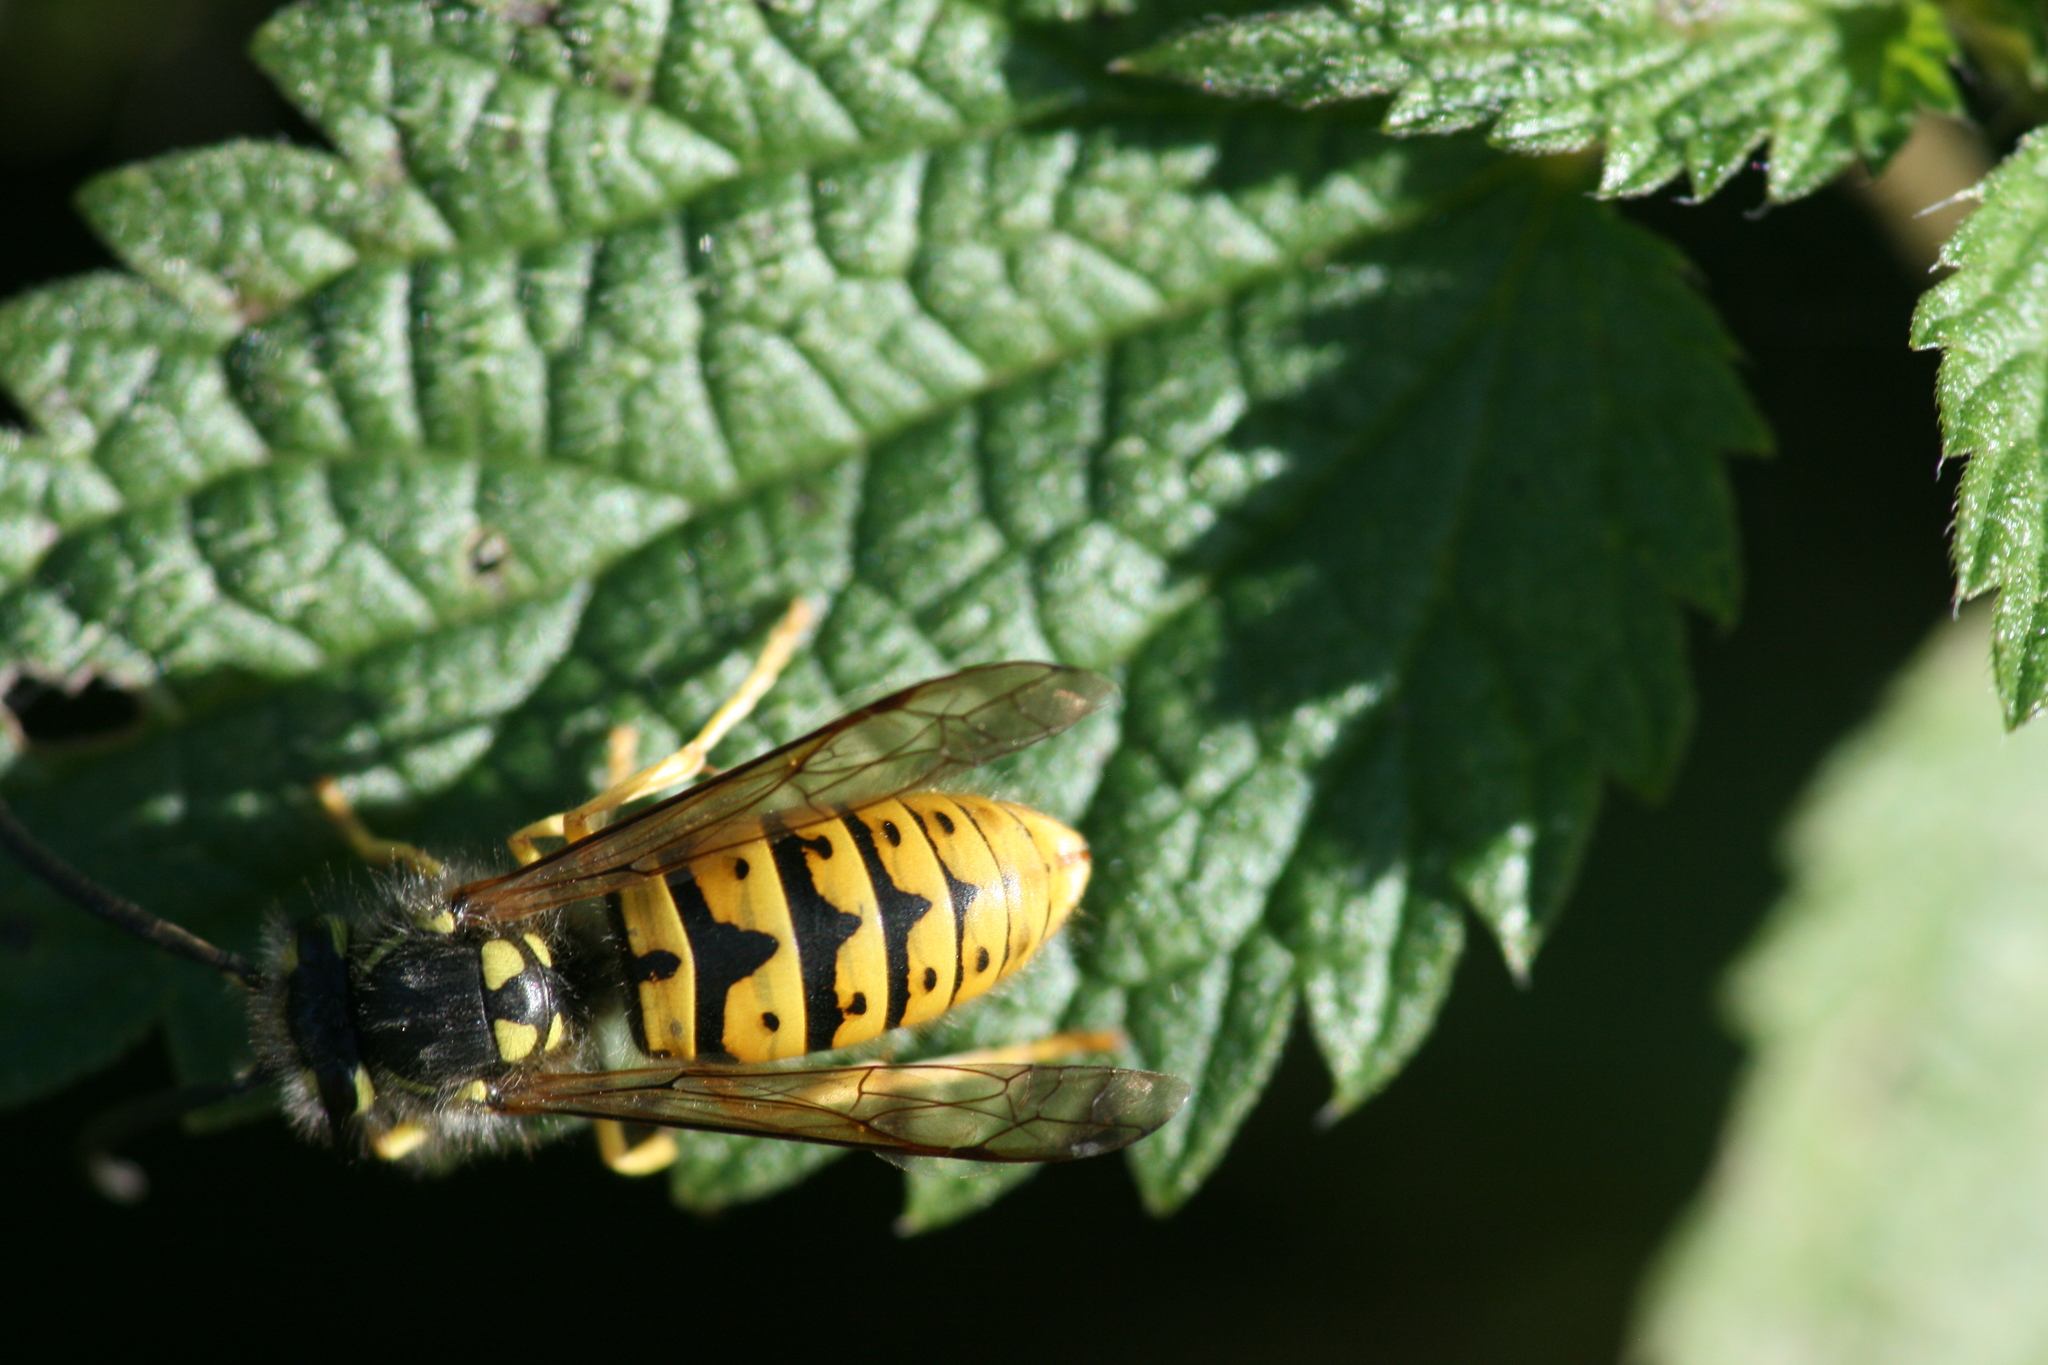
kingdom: Animalia
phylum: Arthropoda
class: Insecta
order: Hymenoptera
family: Vespidae
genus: Vespula
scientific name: Vespula germanica
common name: German wasp
